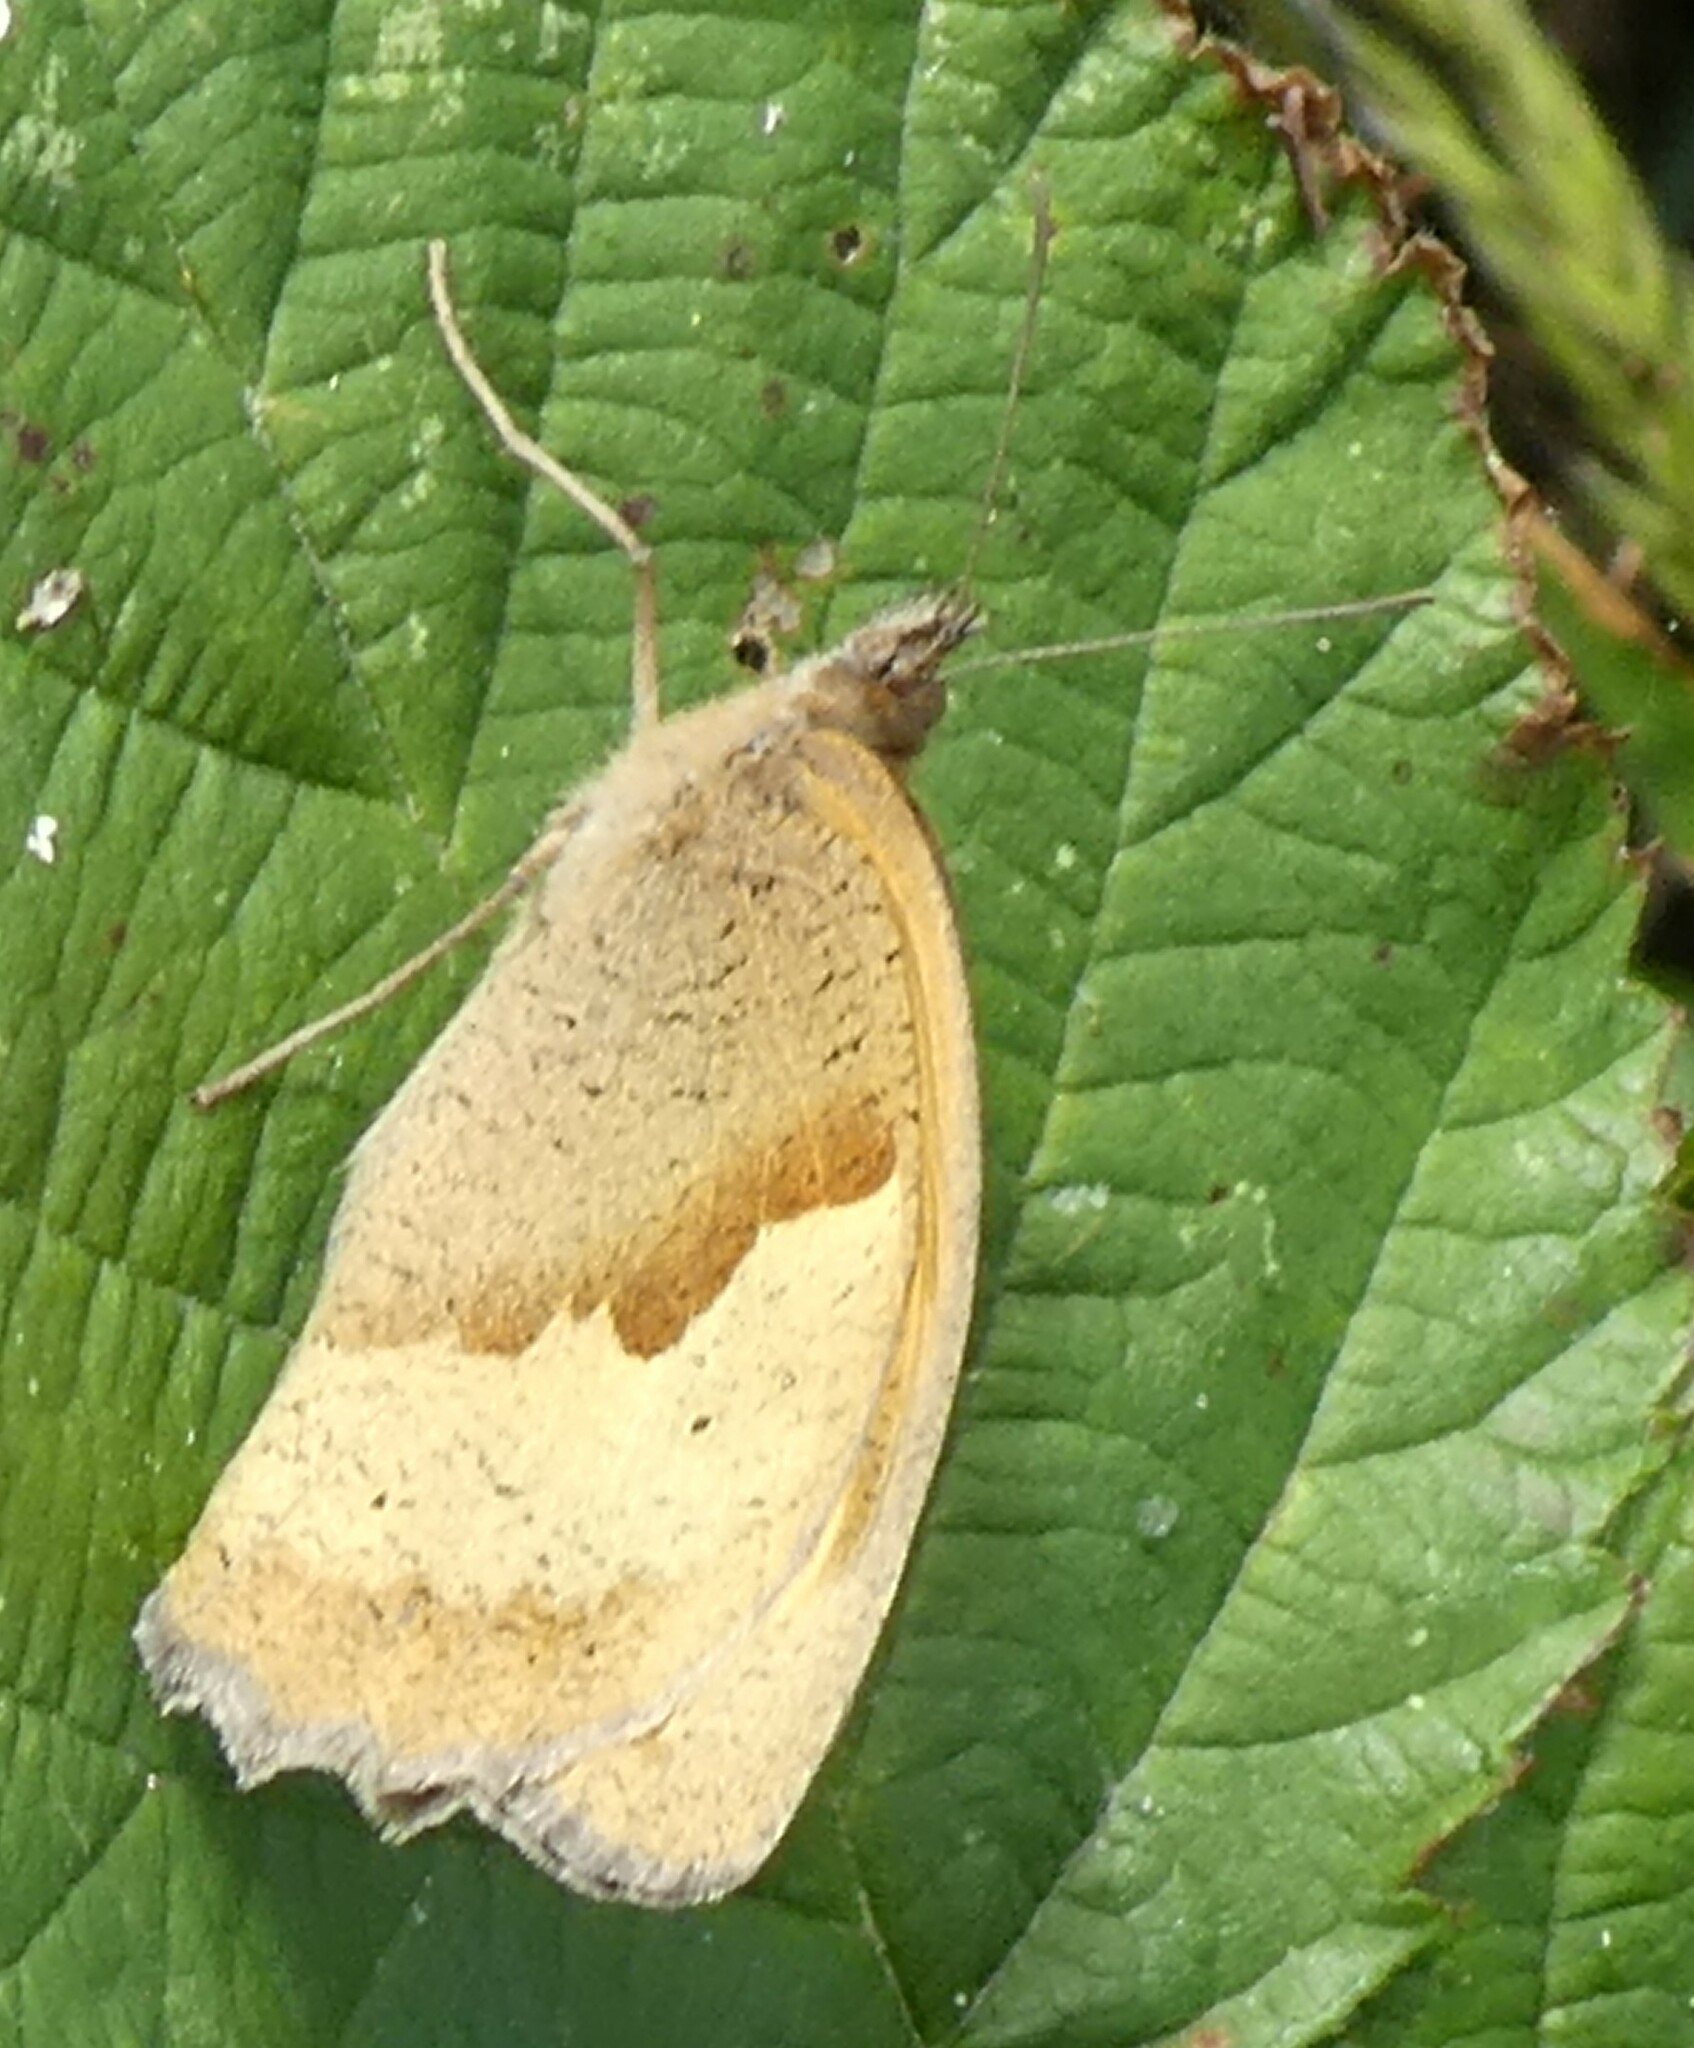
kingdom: Animalia
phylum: Arthropoda
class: Insecta
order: Lepidoptera
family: Nymphalidae
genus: Maniola
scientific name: Maniola jurtina
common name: Meadow brown
